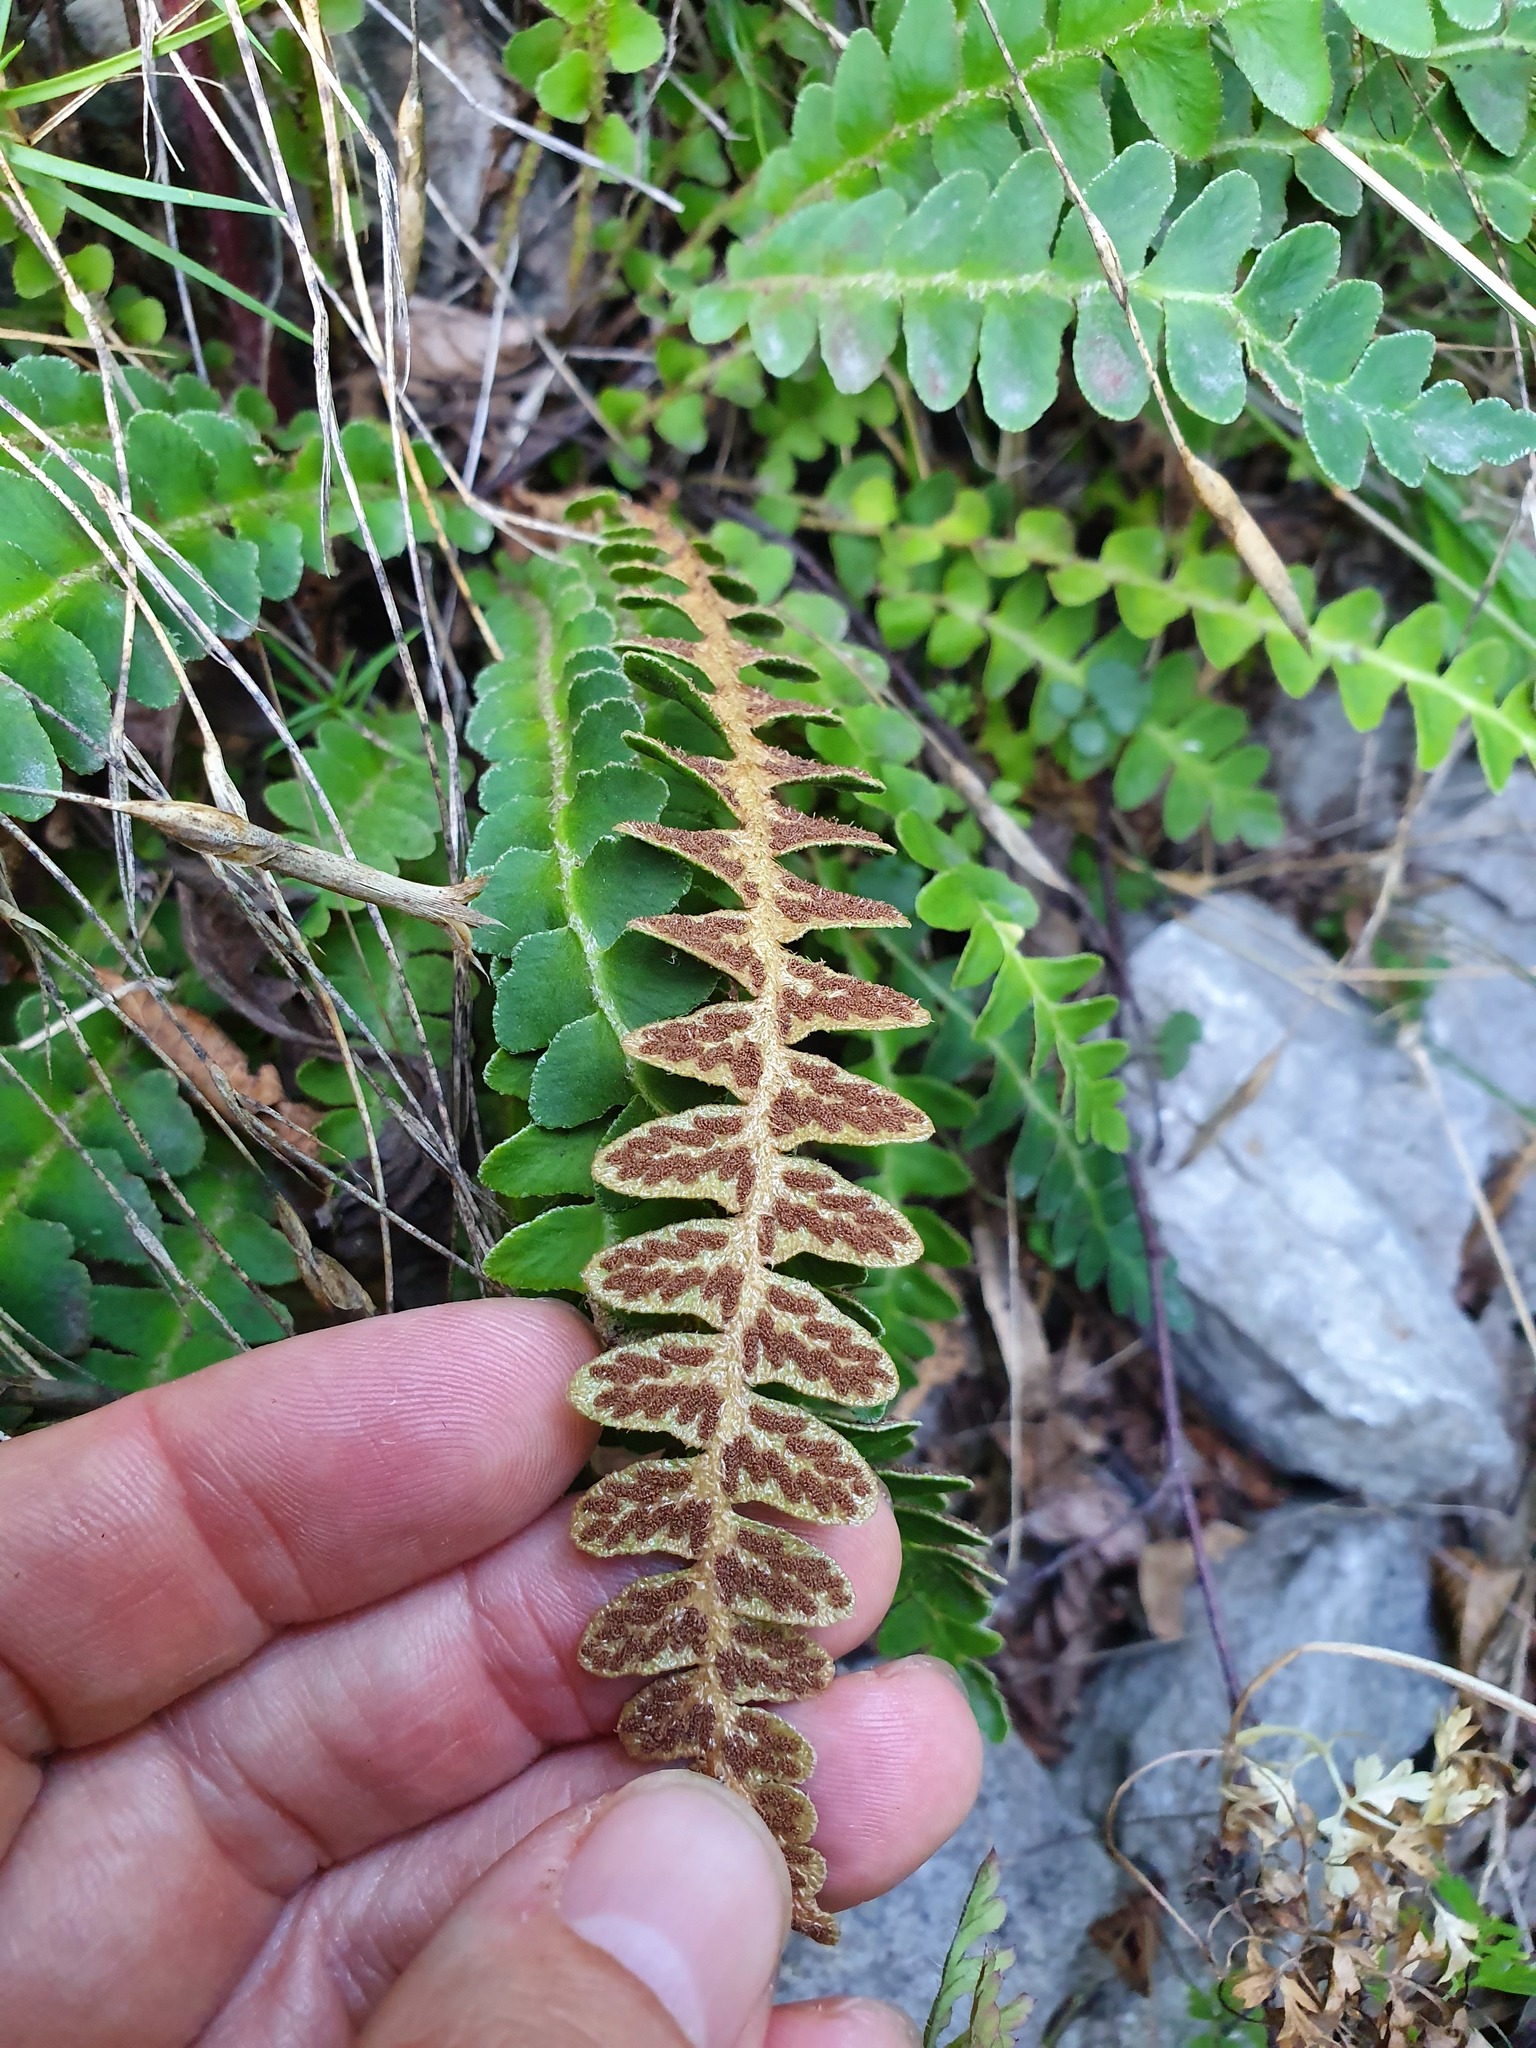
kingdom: Plantae
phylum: Tracheophyta
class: Polypodiopsida
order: Polypodiales
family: Aspleniaceae
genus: Asplenium
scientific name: Asplenium ceterach
